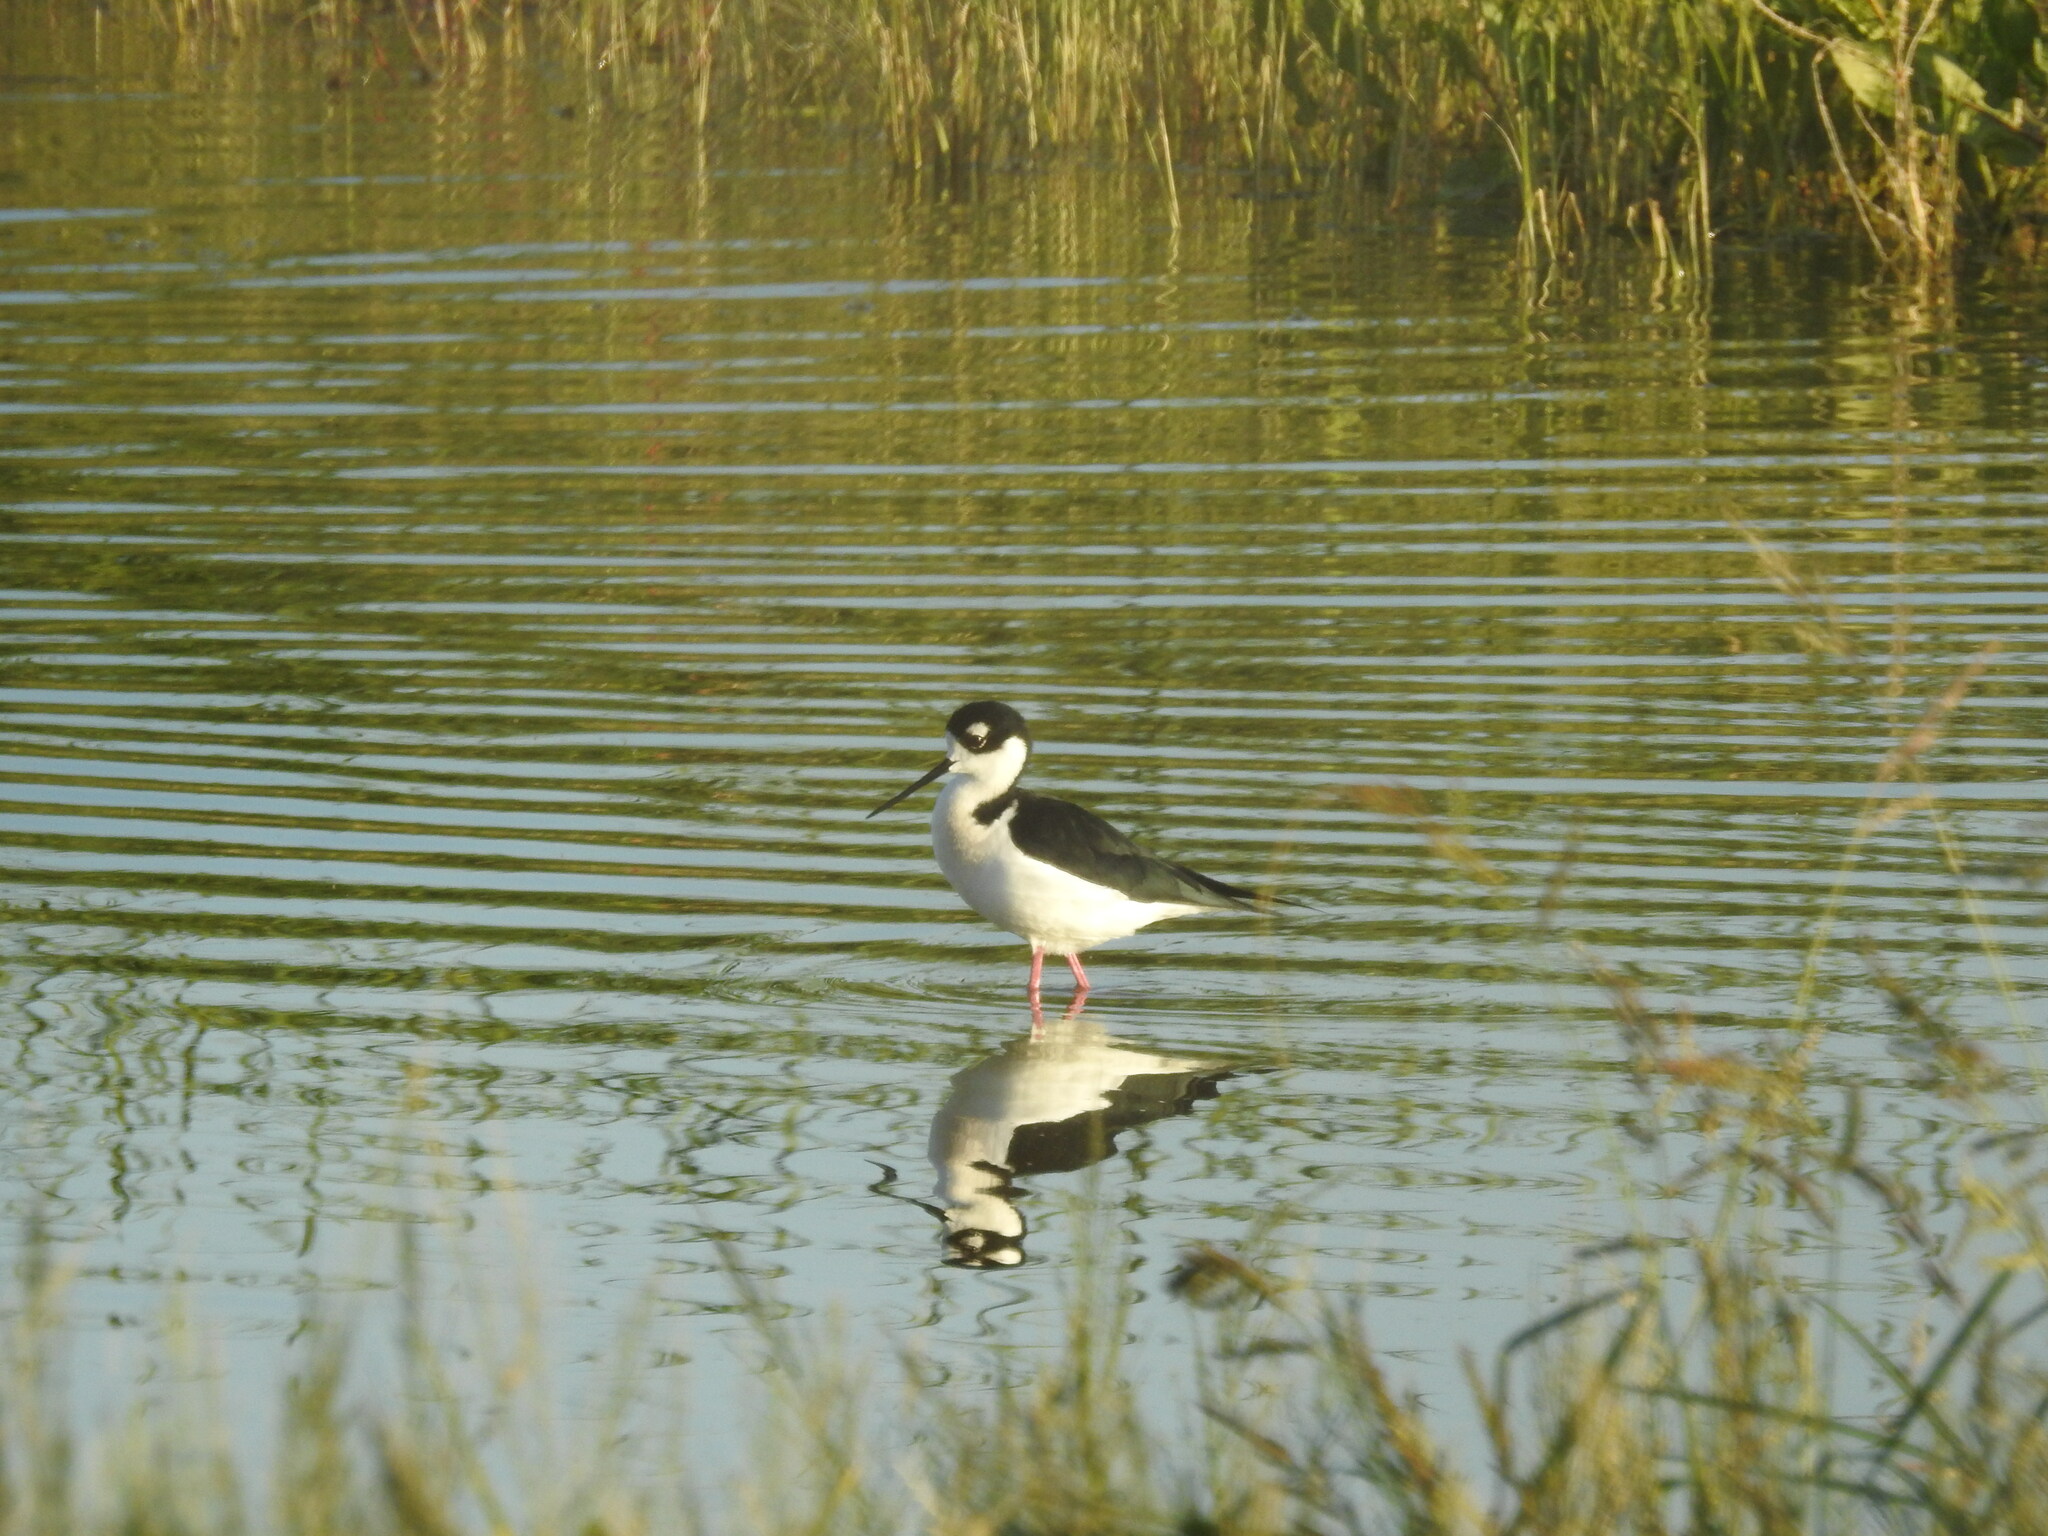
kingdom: Animalia
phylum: Chordata
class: Aves
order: Charadriiformes
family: Recurvirostridae
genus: Himantopus
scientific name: Himantopus mexicanus
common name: Black-necked stilt
